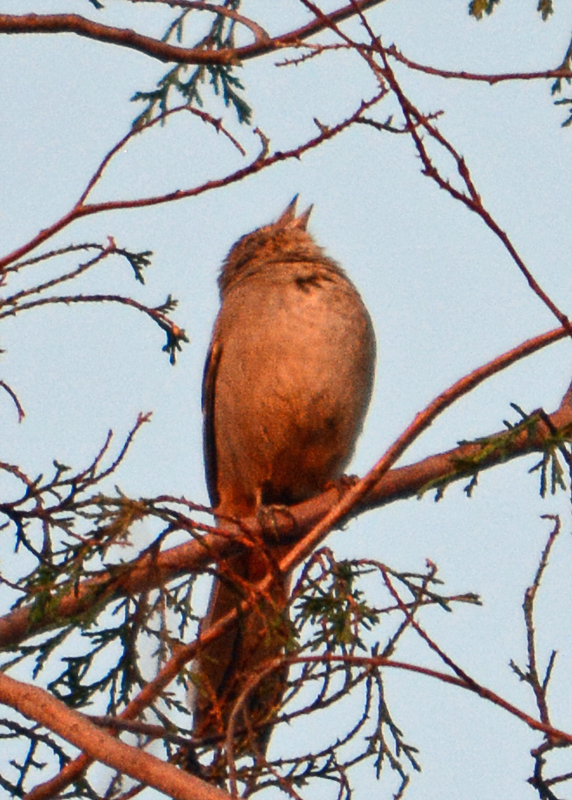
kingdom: Animalia
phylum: Chordata
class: Aves
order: Passeriformes
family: Passerellidae
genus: Melozone
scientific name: Melozone fusca
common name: Canyon towhee
